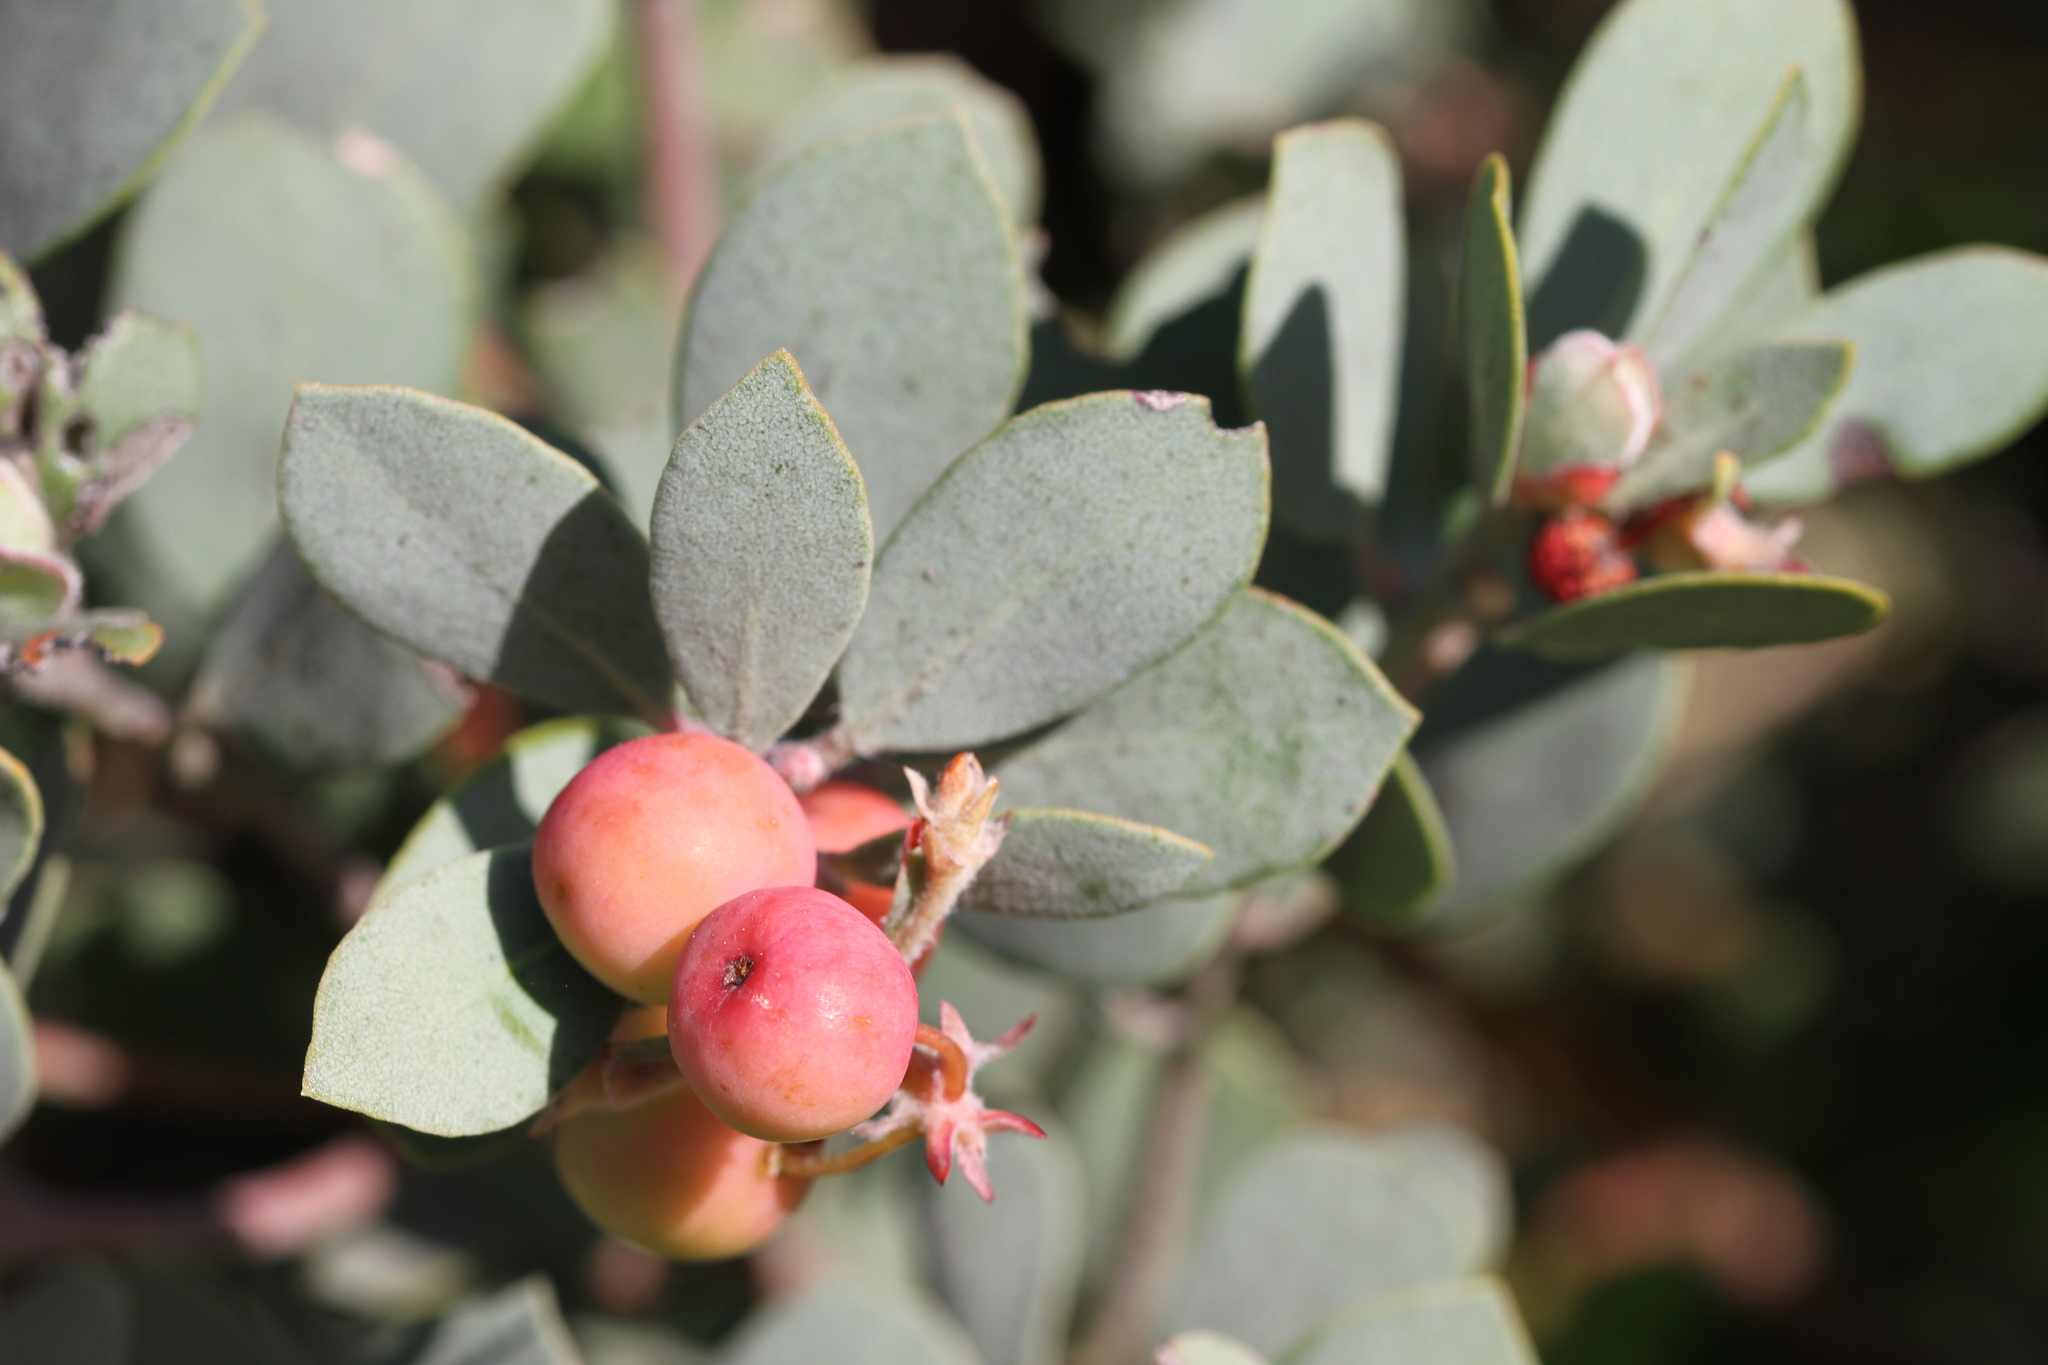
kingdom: Plantae
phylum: Tracheophyta
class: Magnoliopsida
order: Ericales
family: Ericaceae
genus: Arctostaphylos
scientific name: Arctostaphylos silvicola
